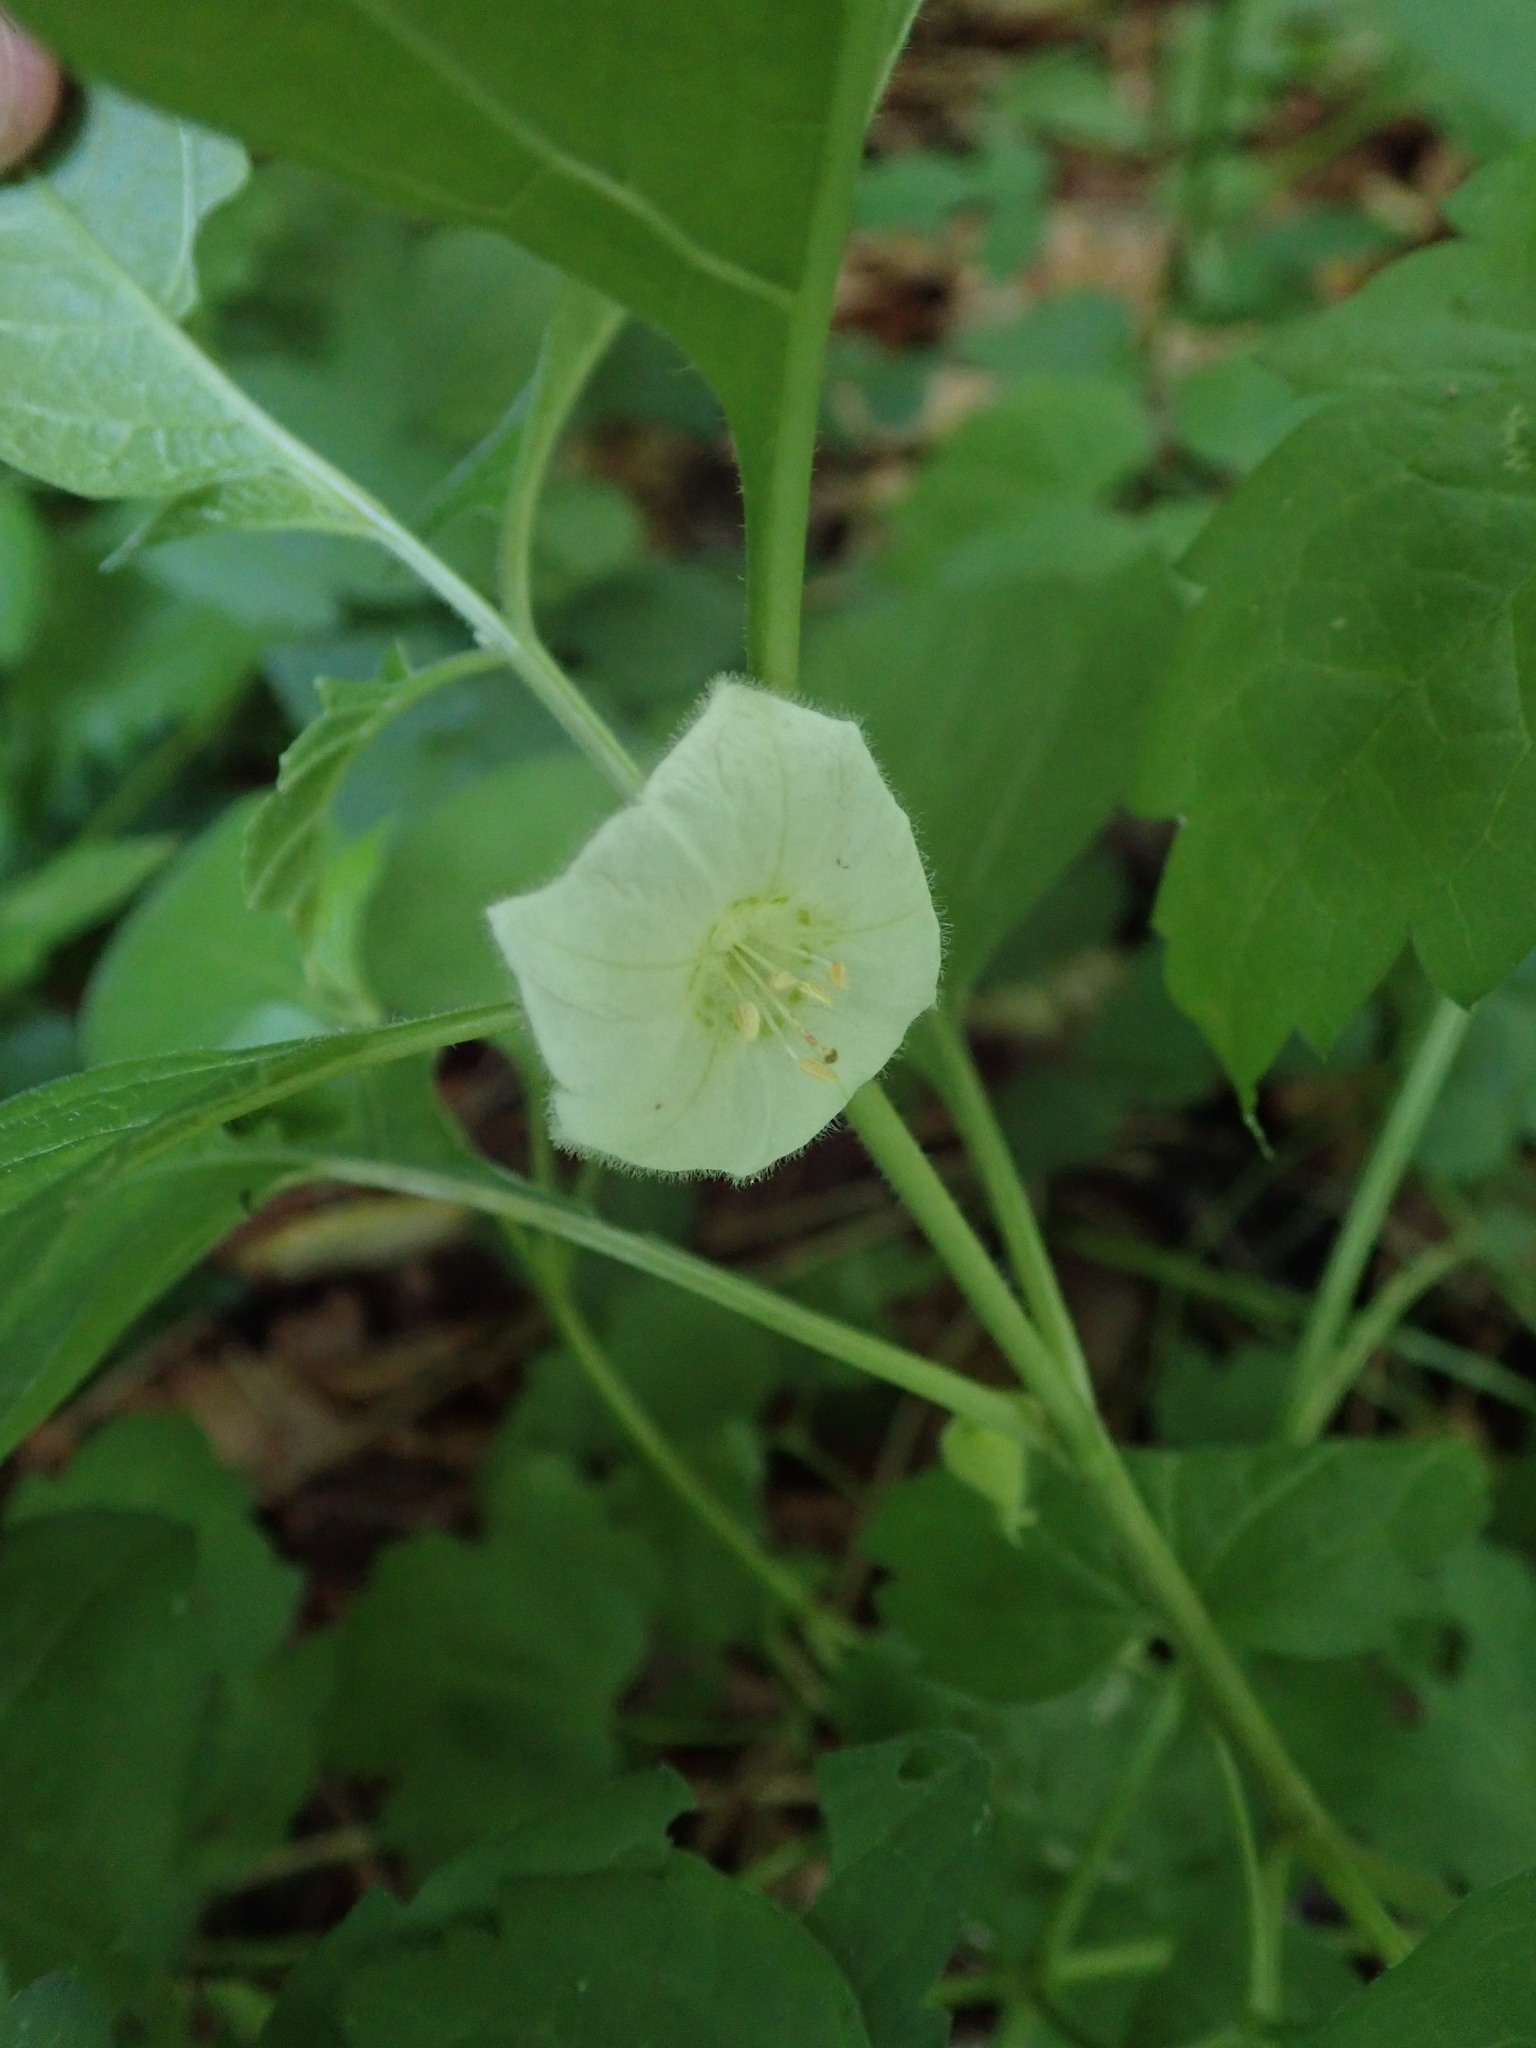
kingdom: Plantae
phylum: Tracheophyta
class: Magnoliopsida
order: Solanales
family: Solanaceae
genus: Alkekengi
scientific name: Alkekengi officinarum
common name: Japanese-lantern
